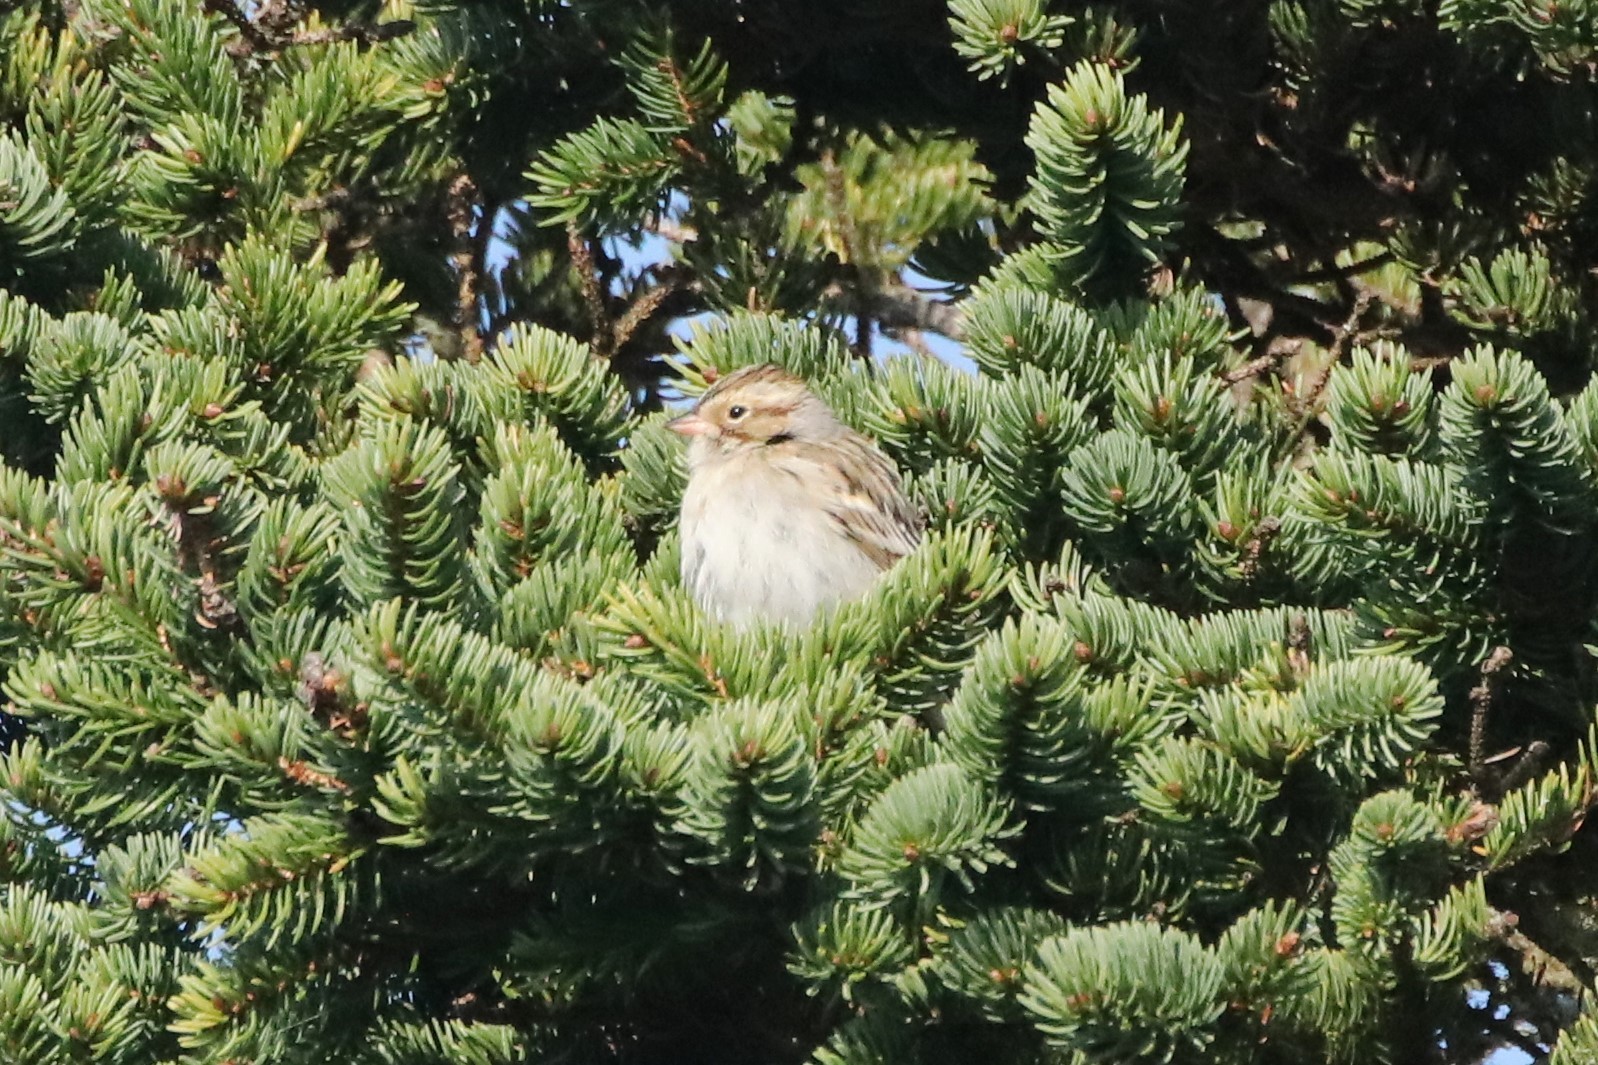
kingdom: Animalia
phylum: Chordata
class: Aves
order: Passeriformes
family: Passerellidae
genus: Spizella
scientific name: Spizella pallida
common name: Clay-colored sparrow
